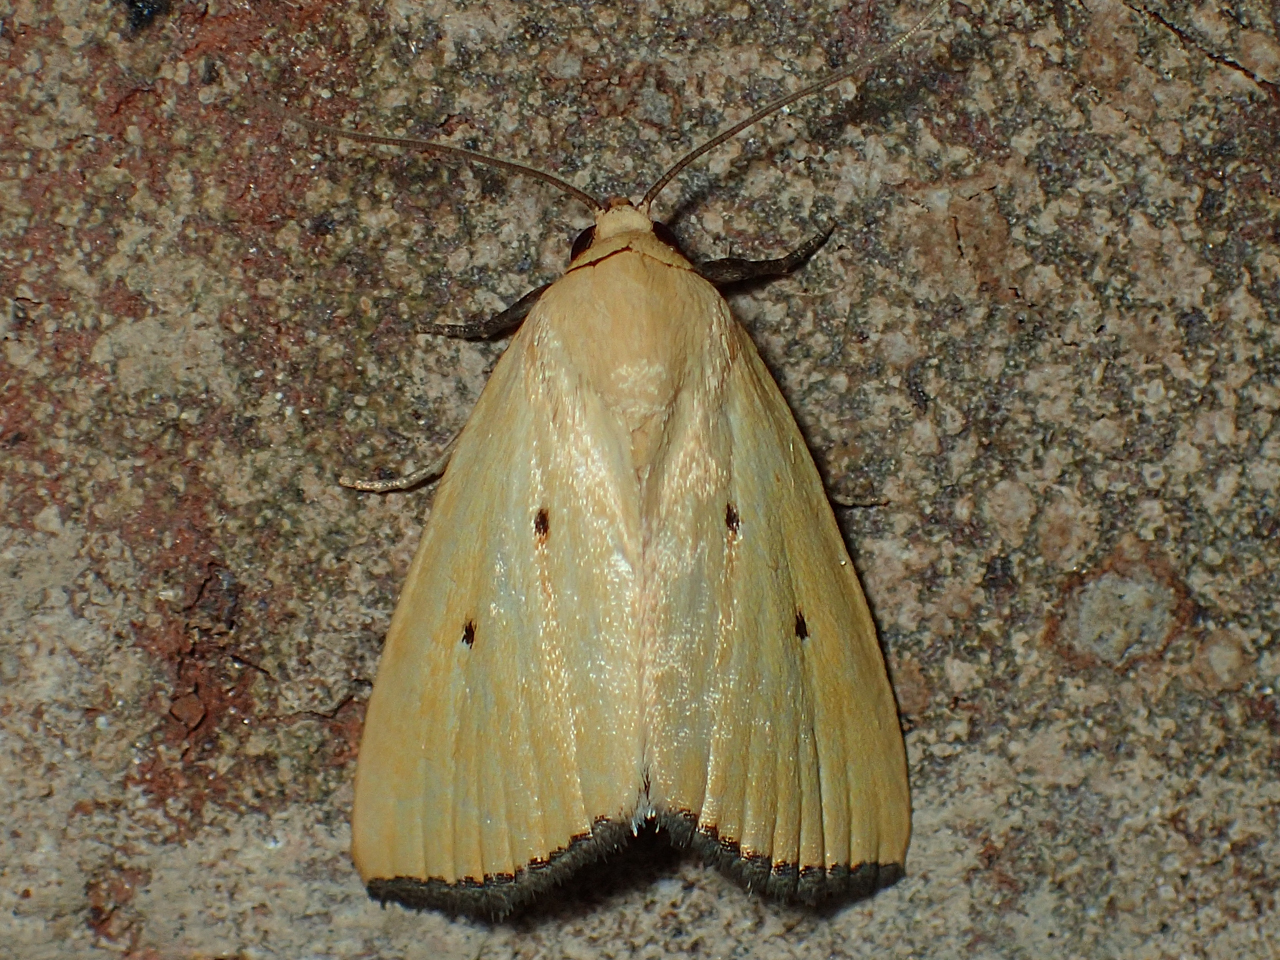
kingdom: Animalia
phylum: Arthropoda
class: Insecta
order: Lepidoptera
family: Noctuidae
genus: Marimatha
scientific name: Marimatha nigrofimbria
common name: Black-bordered lemon moth
